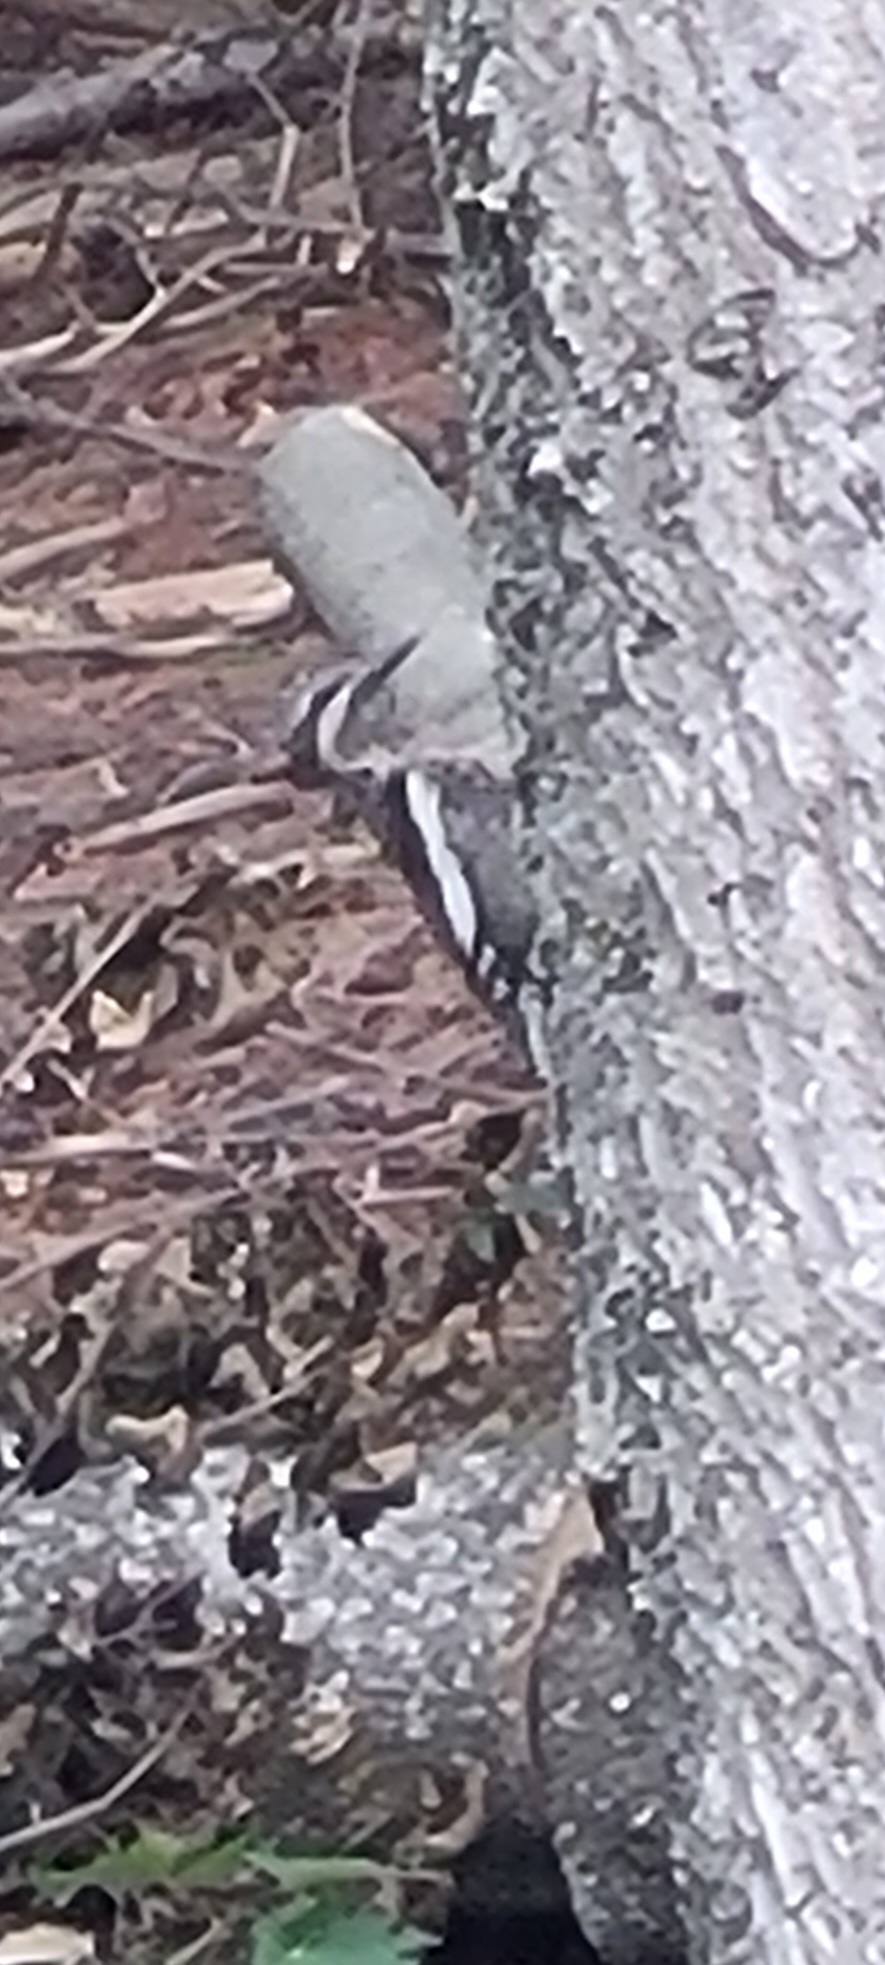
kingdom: Animalia
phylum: Chordata
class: Aves
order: Piciformes
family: Picidae
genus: Sphyrapicus
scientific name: Sphyrapicus varius
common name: Yellow-bellied sapsucker
